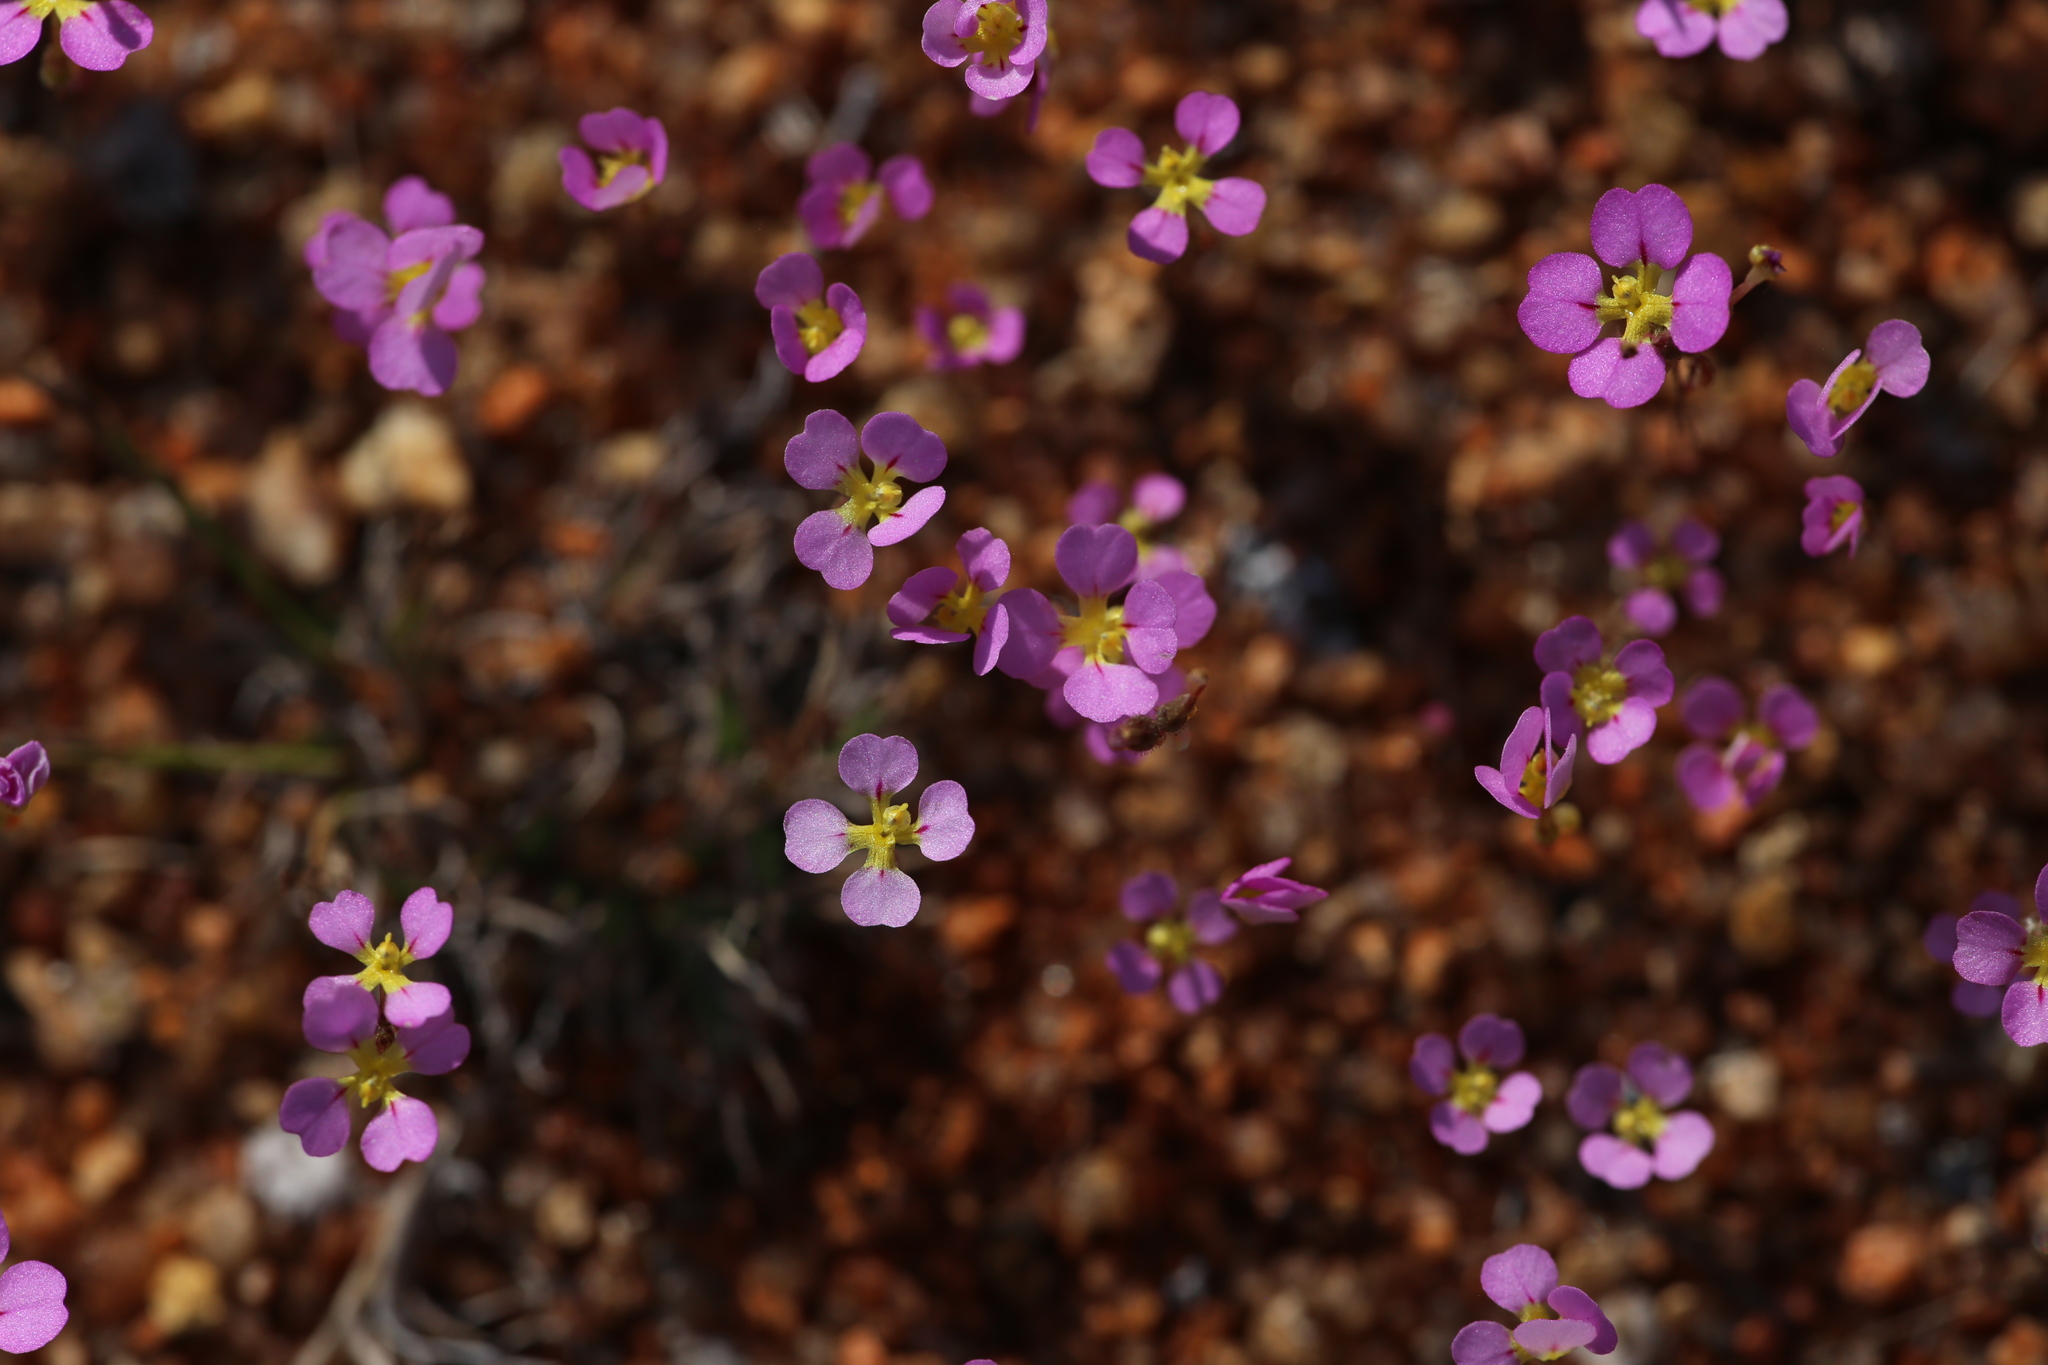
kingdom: Plantae
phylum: Tracheophyta
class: Magnoliopsida
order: Asterales
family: Stylidiaceae
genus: Levenhookia
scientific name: Levenhookia leptantha
